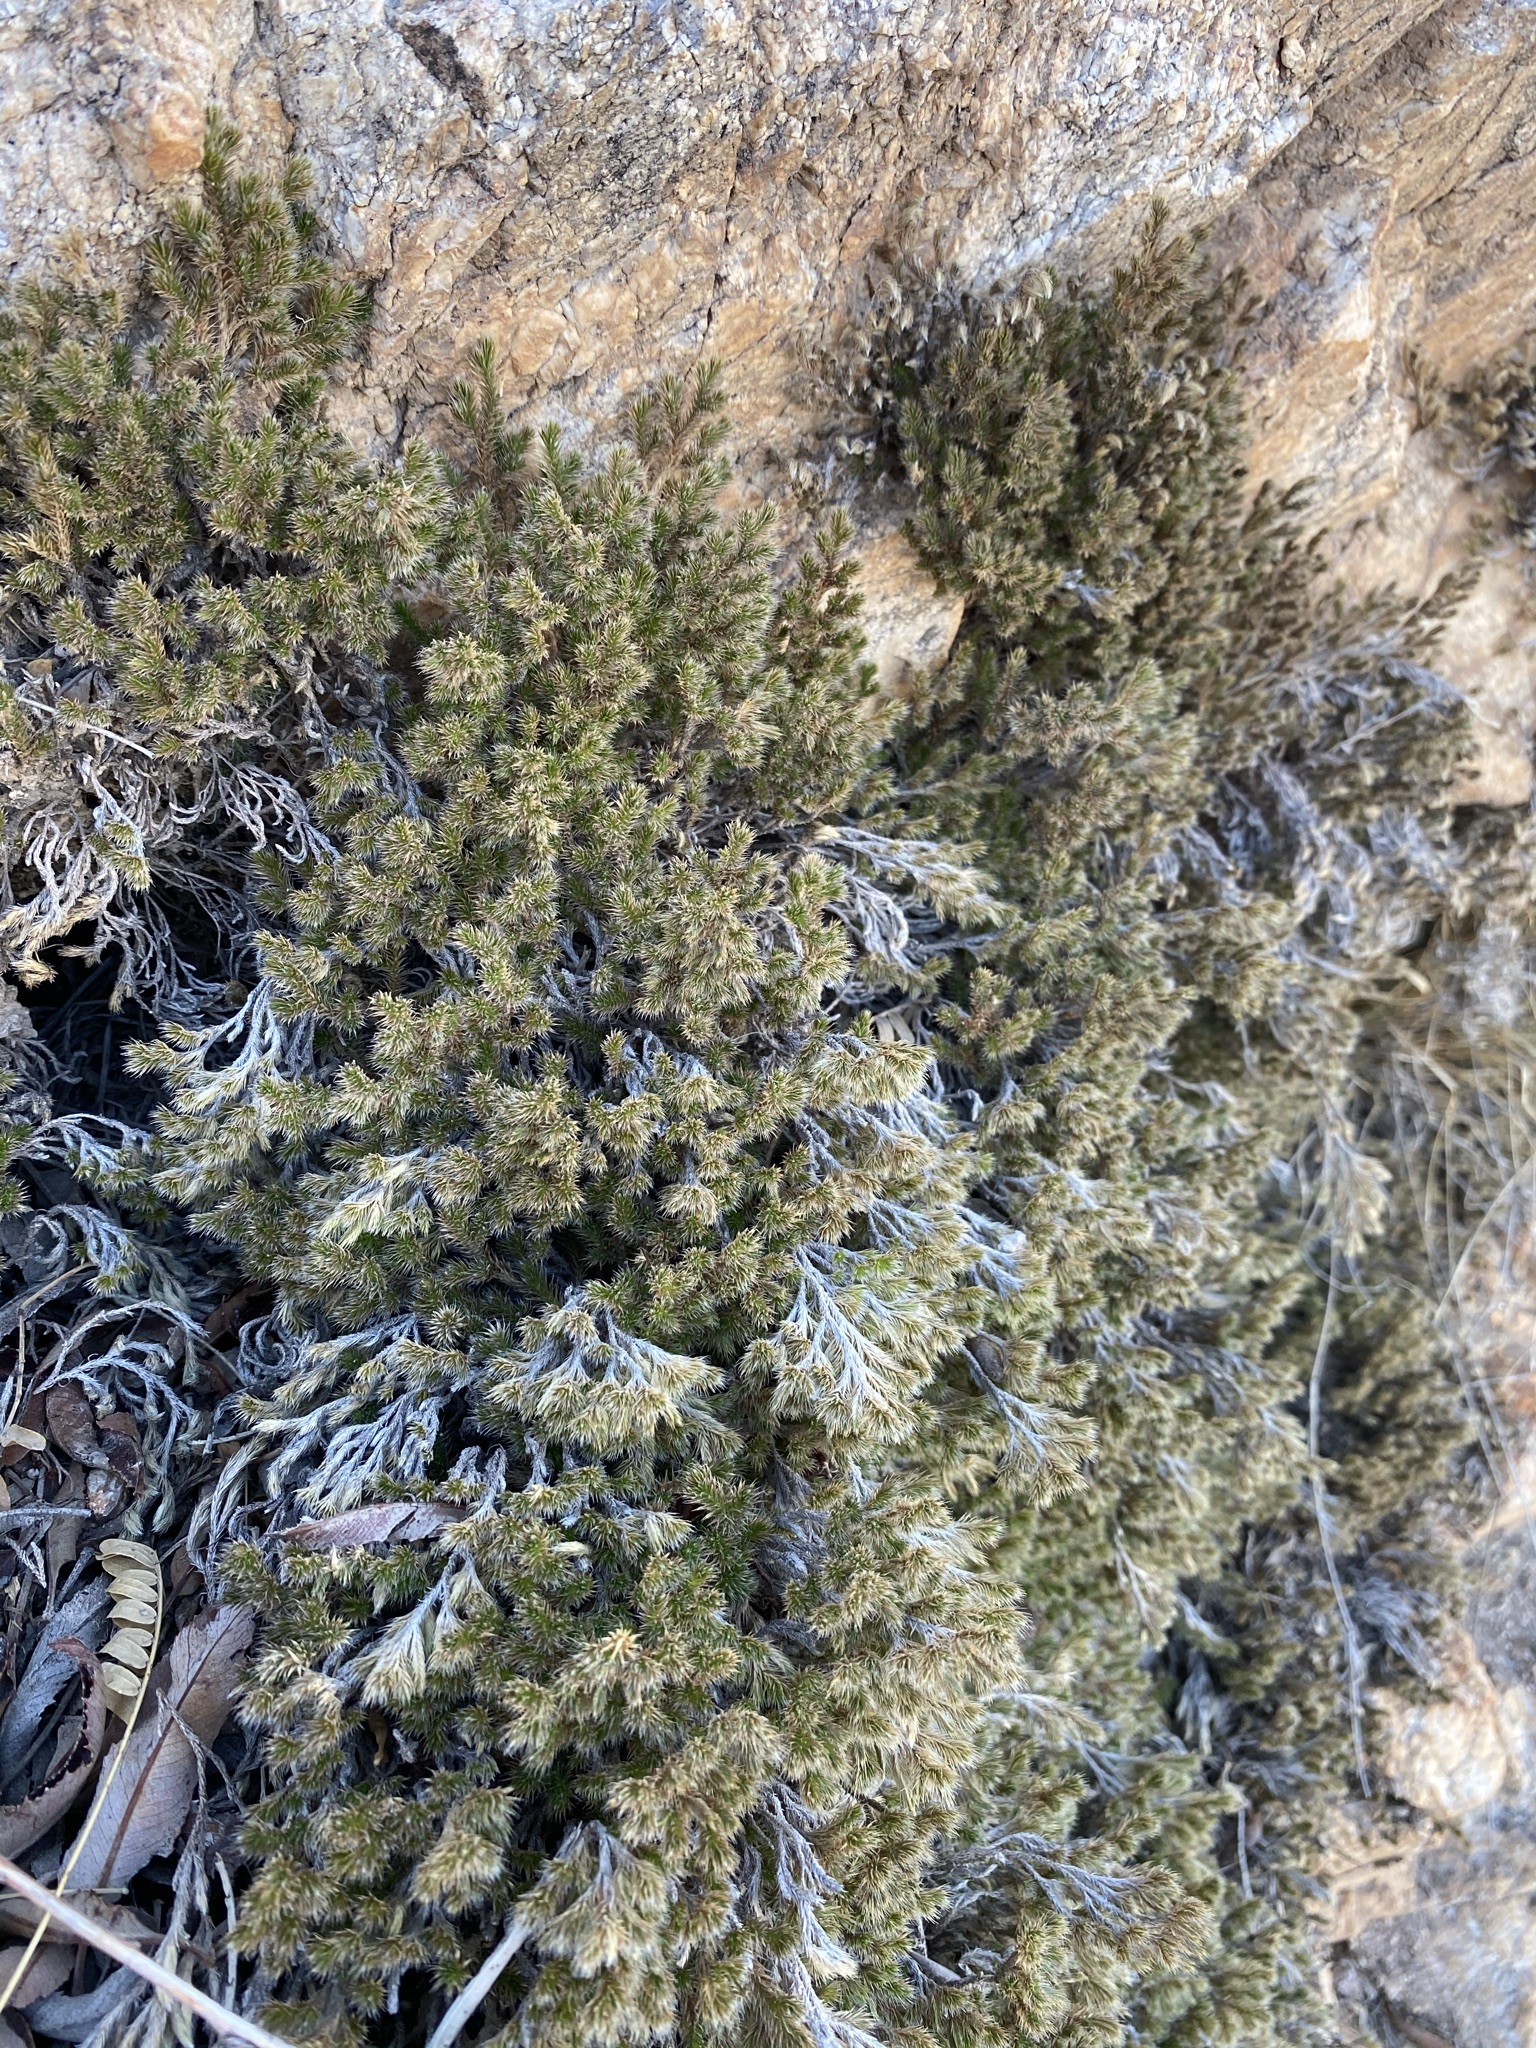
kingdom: Plantae
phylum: Tracheophyta
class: Lycopodiopsida
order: Selaginellales
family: Selaginellaceae
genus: Selaginella
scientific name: Selaginella rupincola
